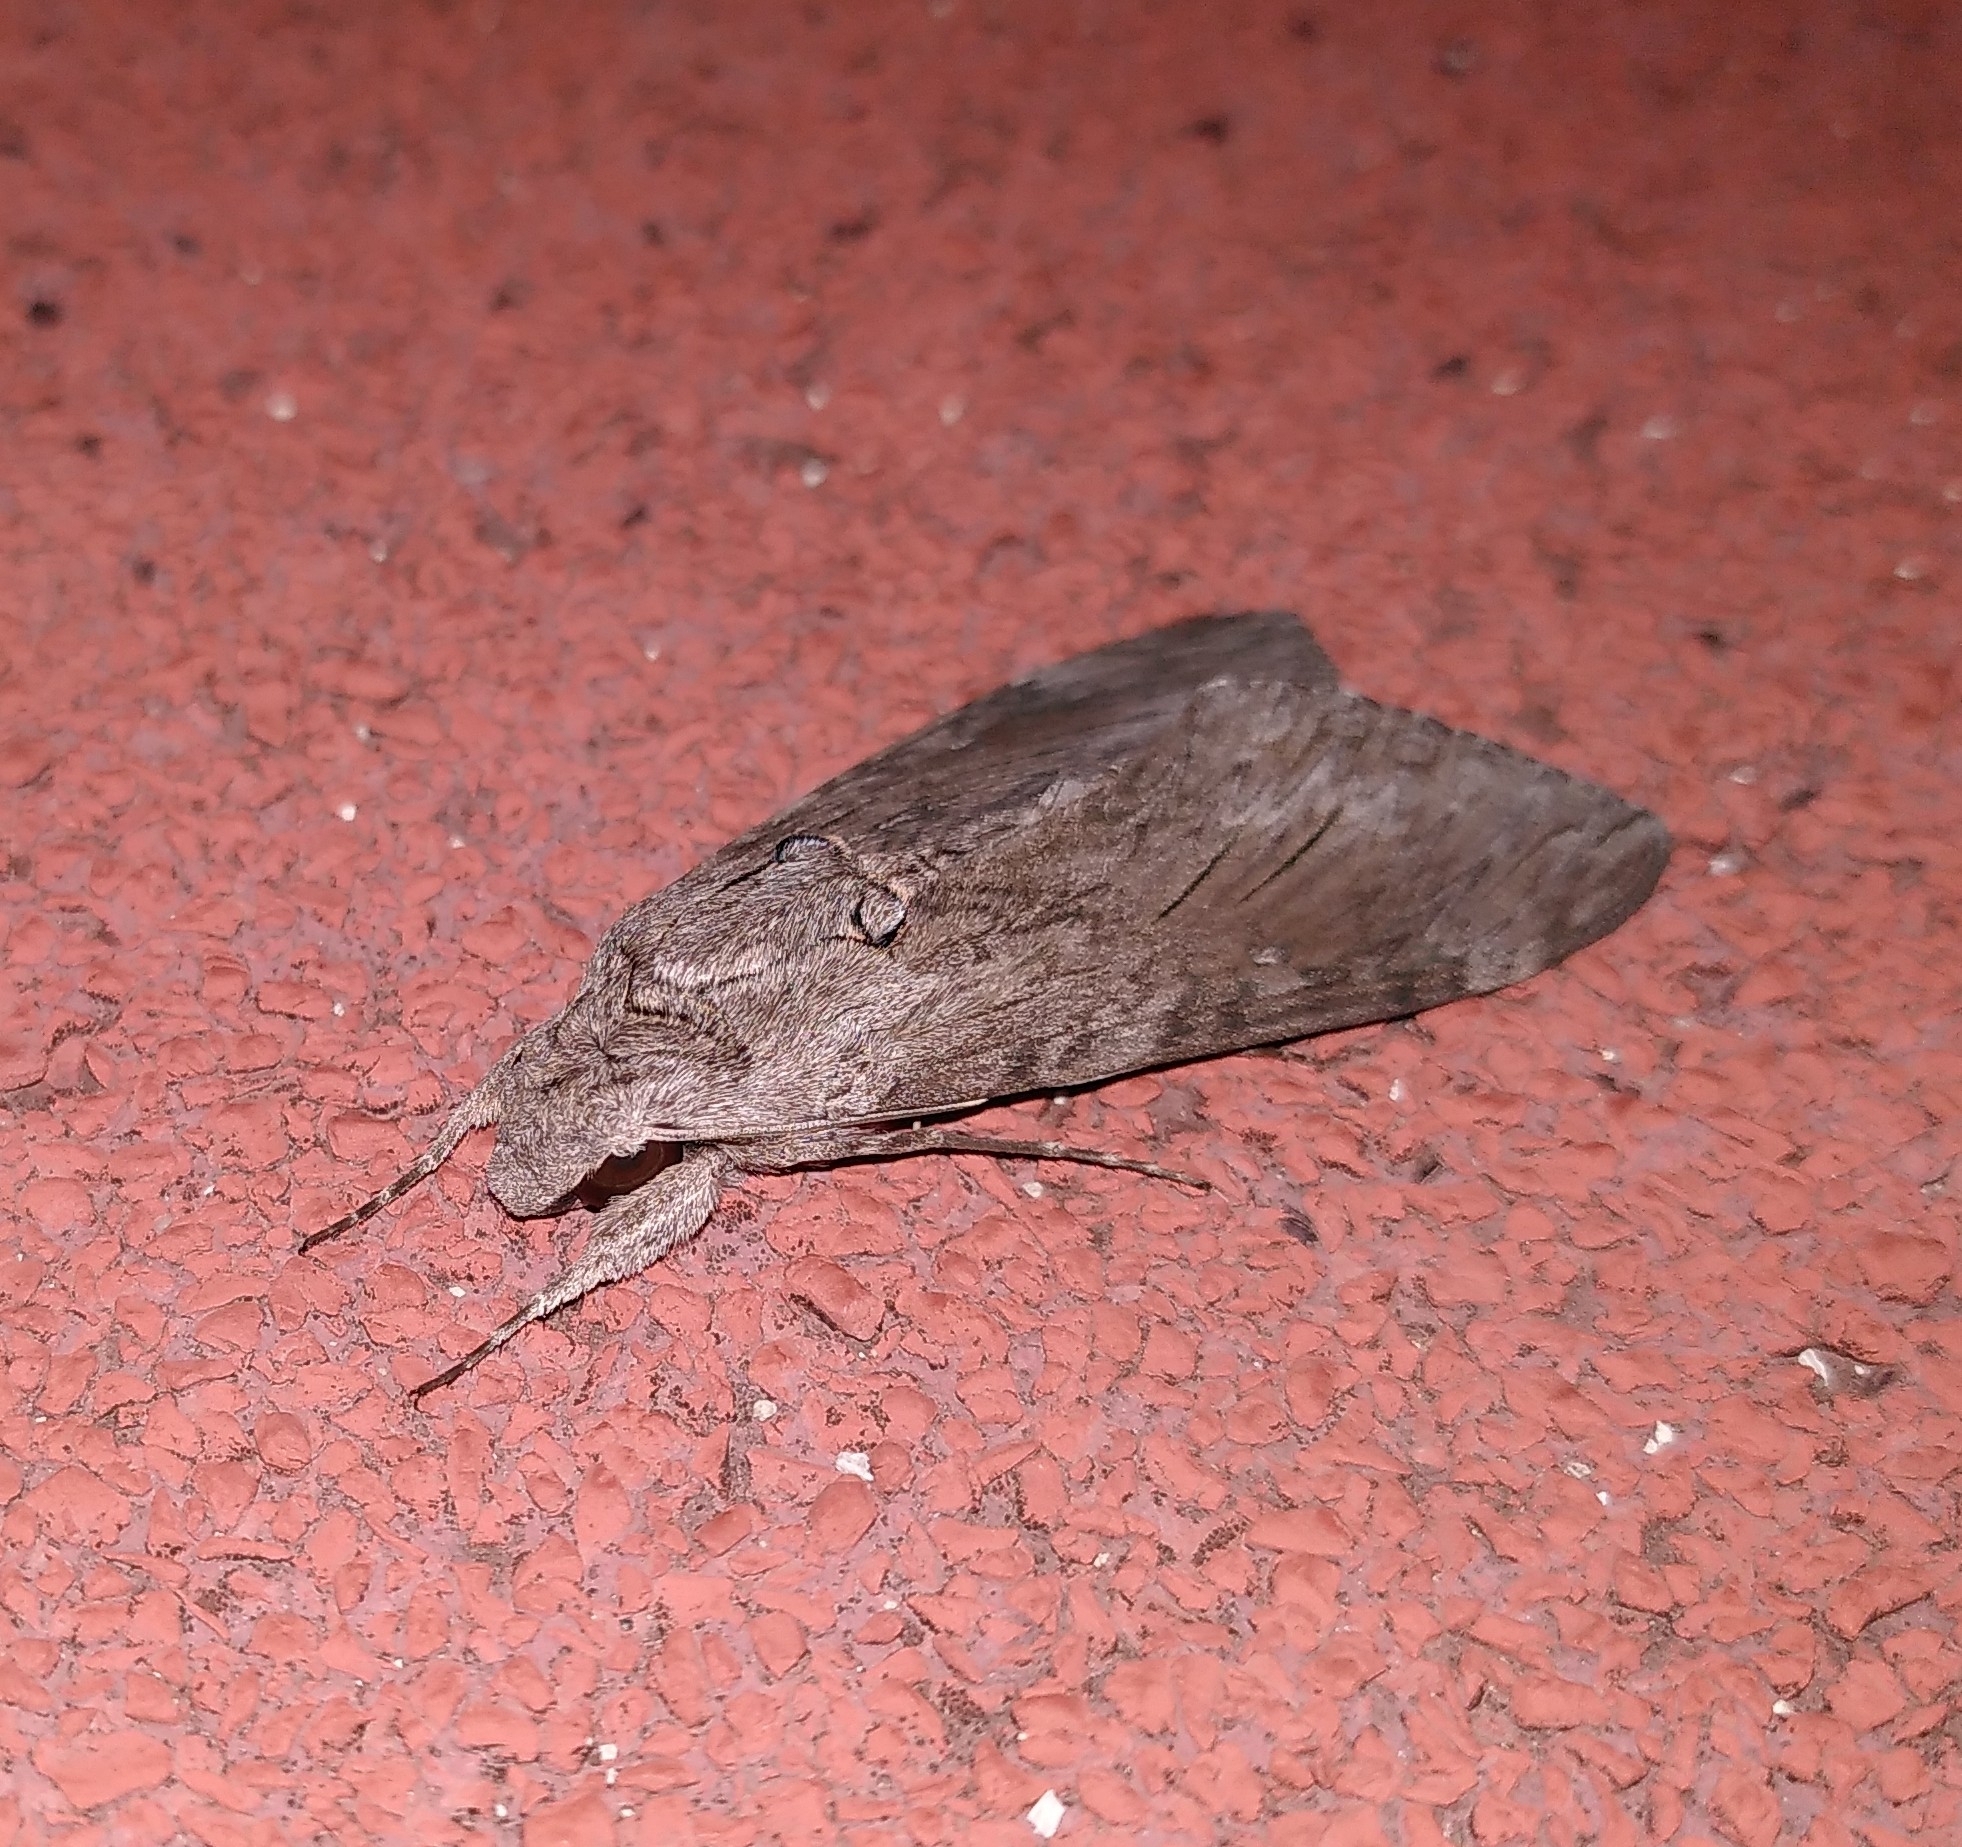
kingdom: Animalia
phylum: Arthropoda
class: Insecta
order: Lepidoptera
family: Sphingidae
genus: Agrius
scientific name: Agrius convolvuli
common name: Convolvulus hawkmoth
